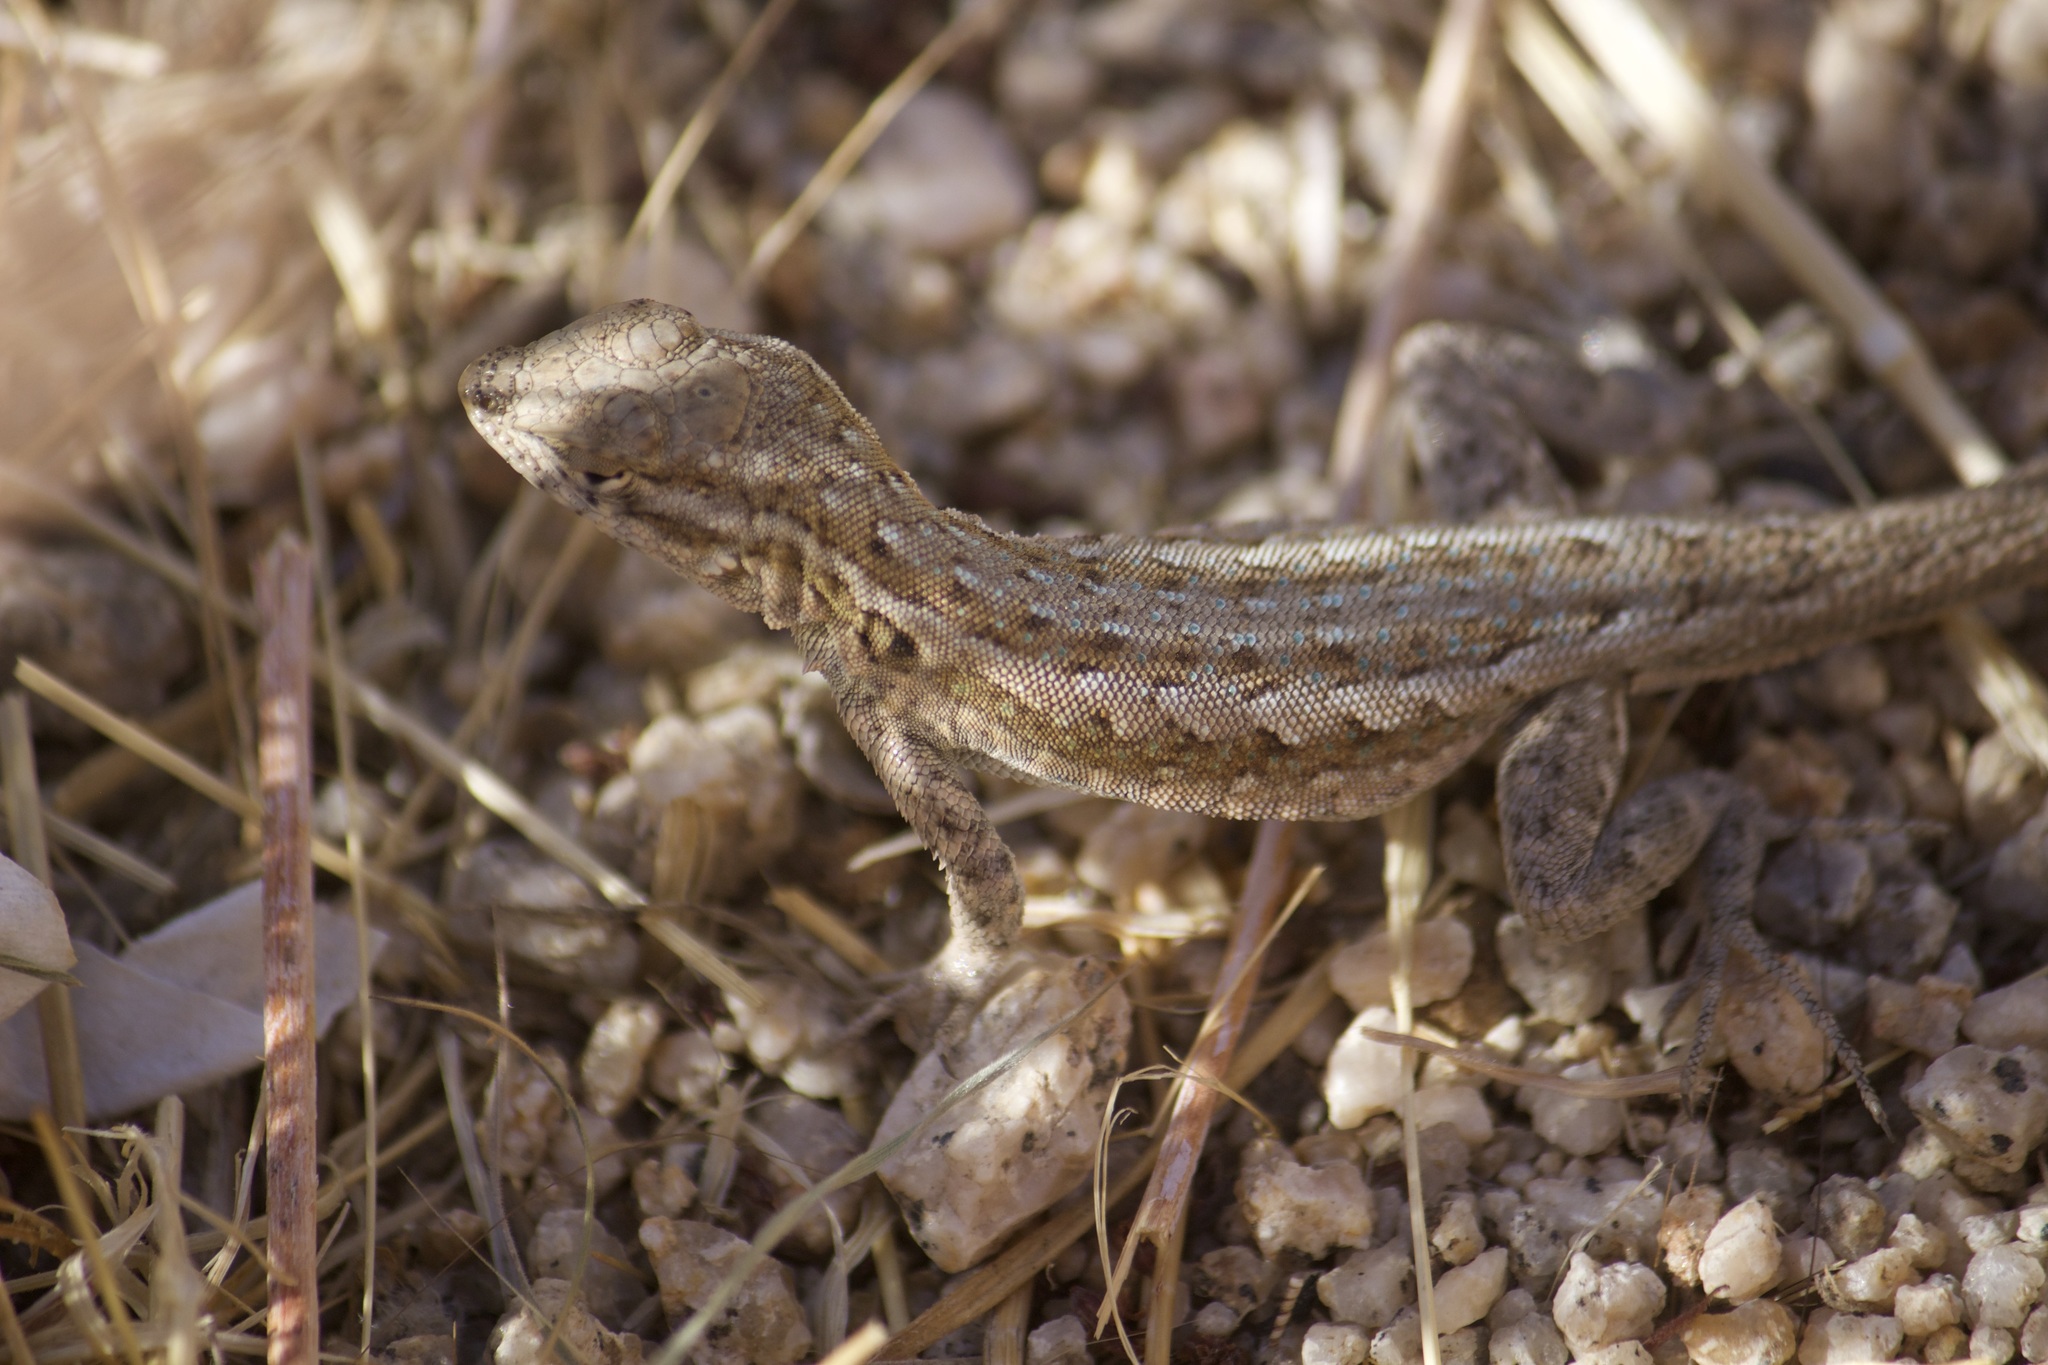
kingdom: Animalia
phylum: Chordata
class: Squamata
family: Phrynosomatidae
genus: Uta
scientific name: Uta stansburiana
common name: Side-blotched lizard
